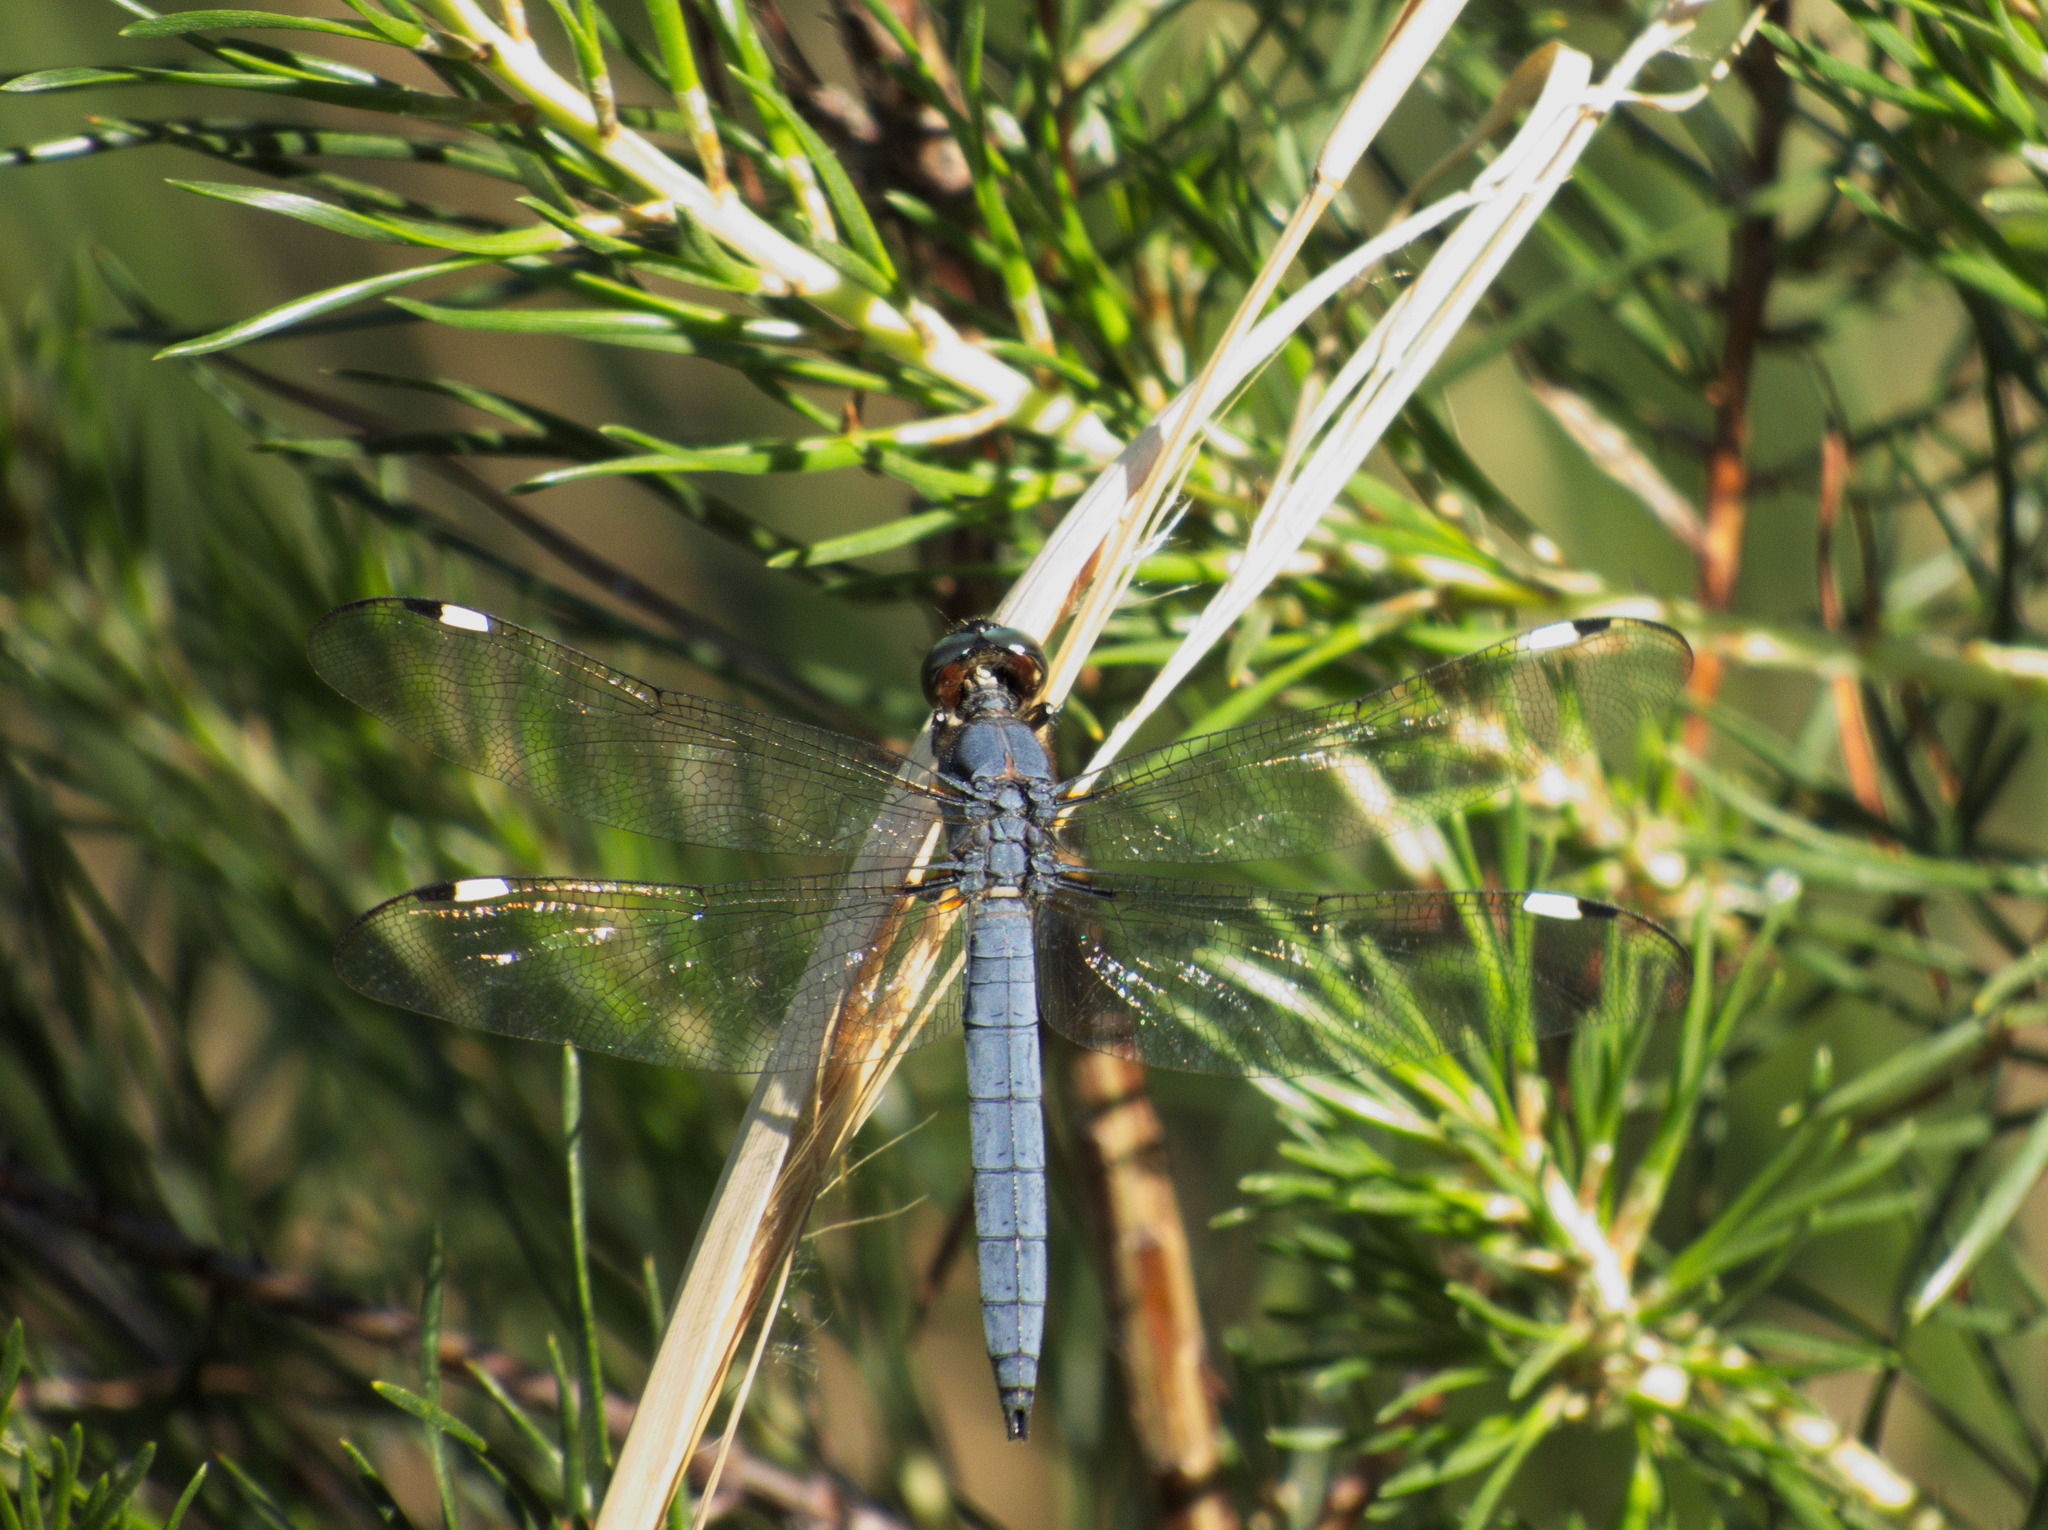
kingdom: Animalia
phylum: Arthropoda
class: Insecta
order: Odonata
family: Libellulidae
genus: Libellula
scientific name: Libellula cyanea
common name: Spangled skimmer
